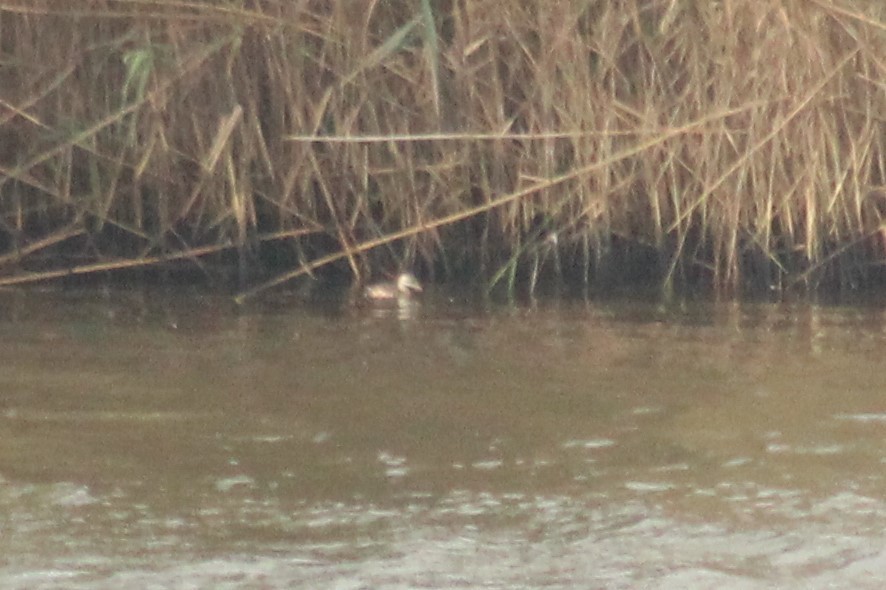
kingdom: Animalia
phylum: Chordata
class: Aves
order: Podicipediformes
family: Podicipedidae
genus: Tachybaptus
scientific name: Tachybaptus ruficollis
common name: Little grebe
